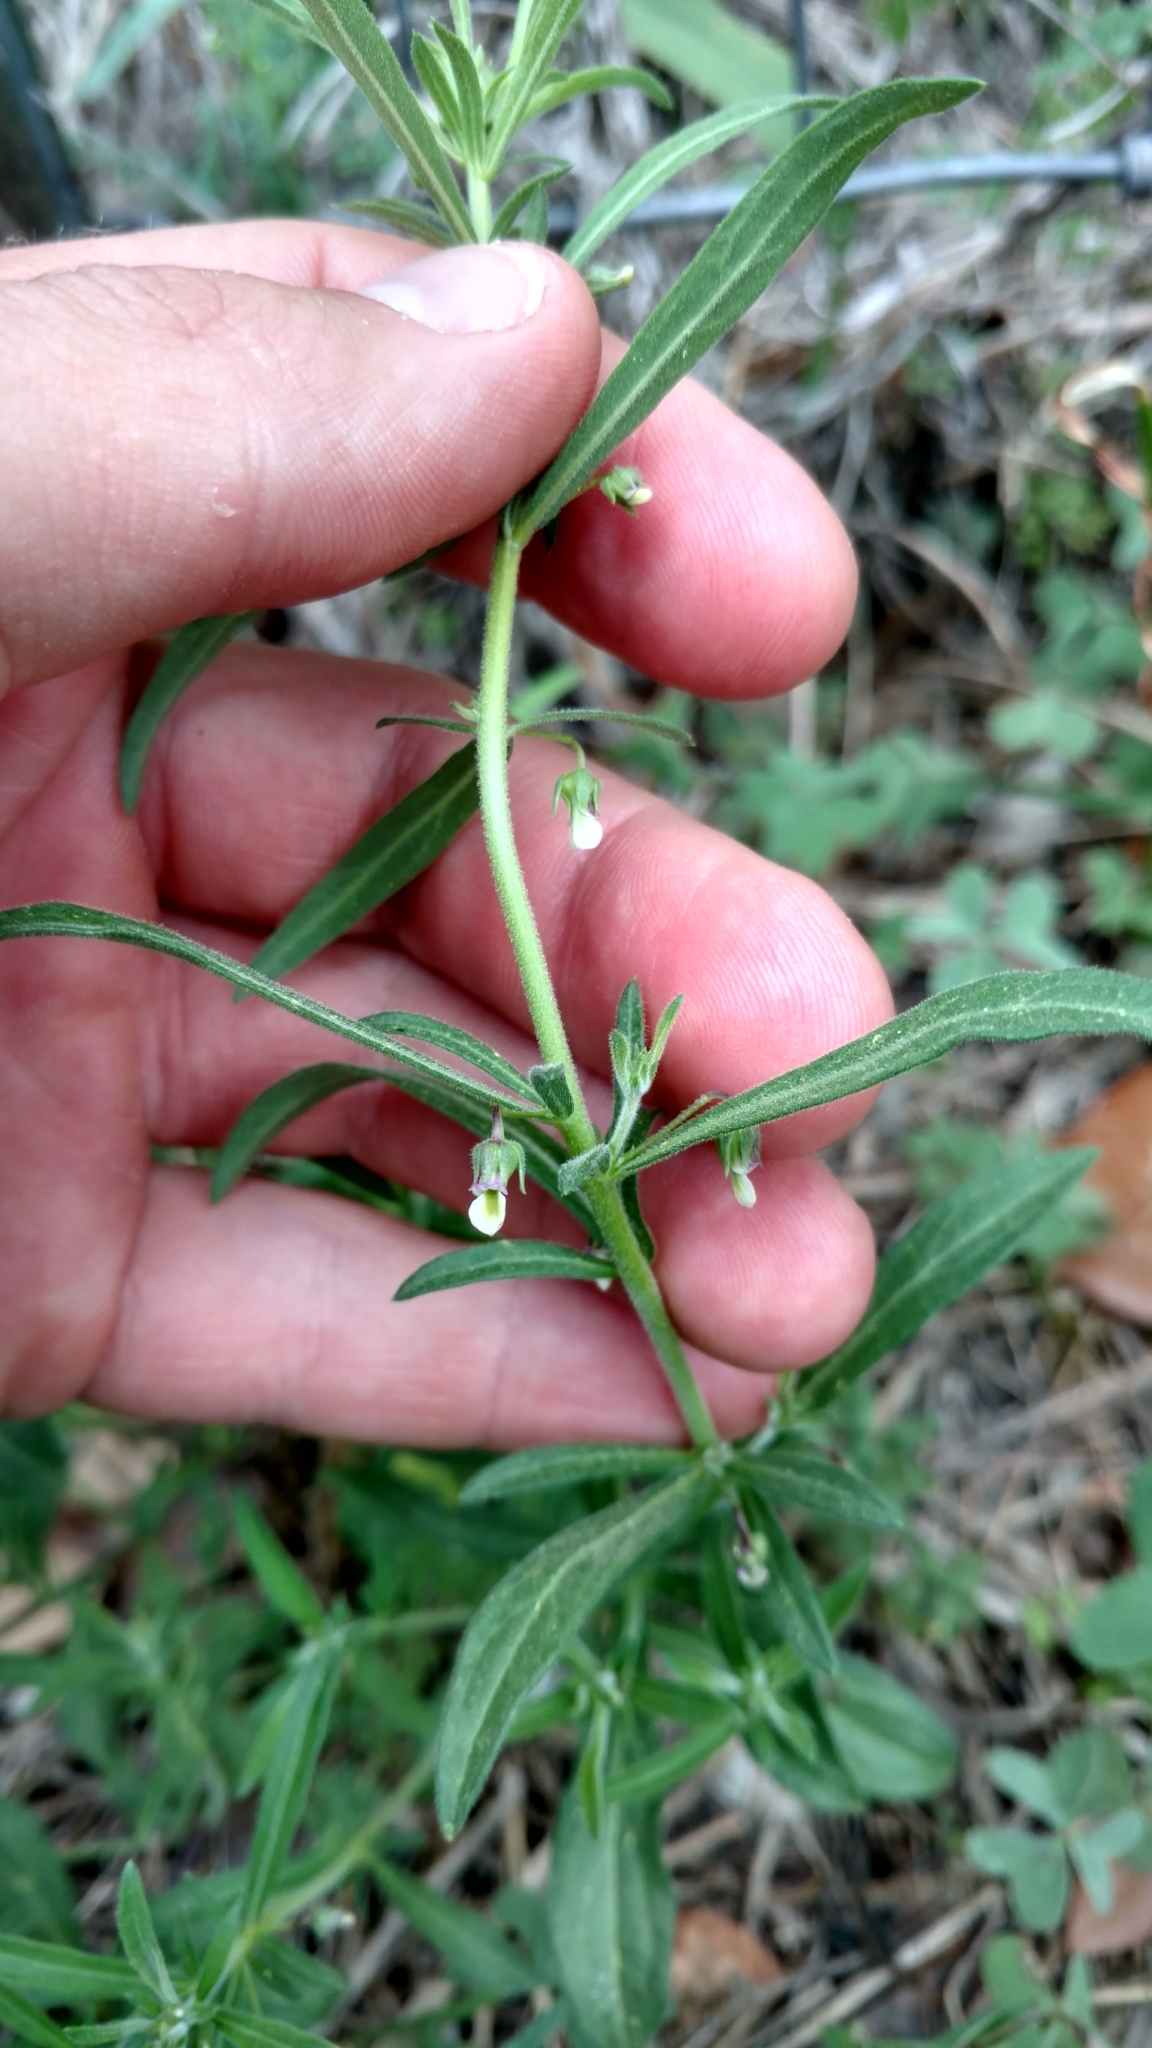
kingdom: Plantae
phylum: Tracheophyta
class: Magnoliopsida
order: Malpighiales
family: Violaceae
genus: Pombalia
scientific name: Pombalia verticillata
